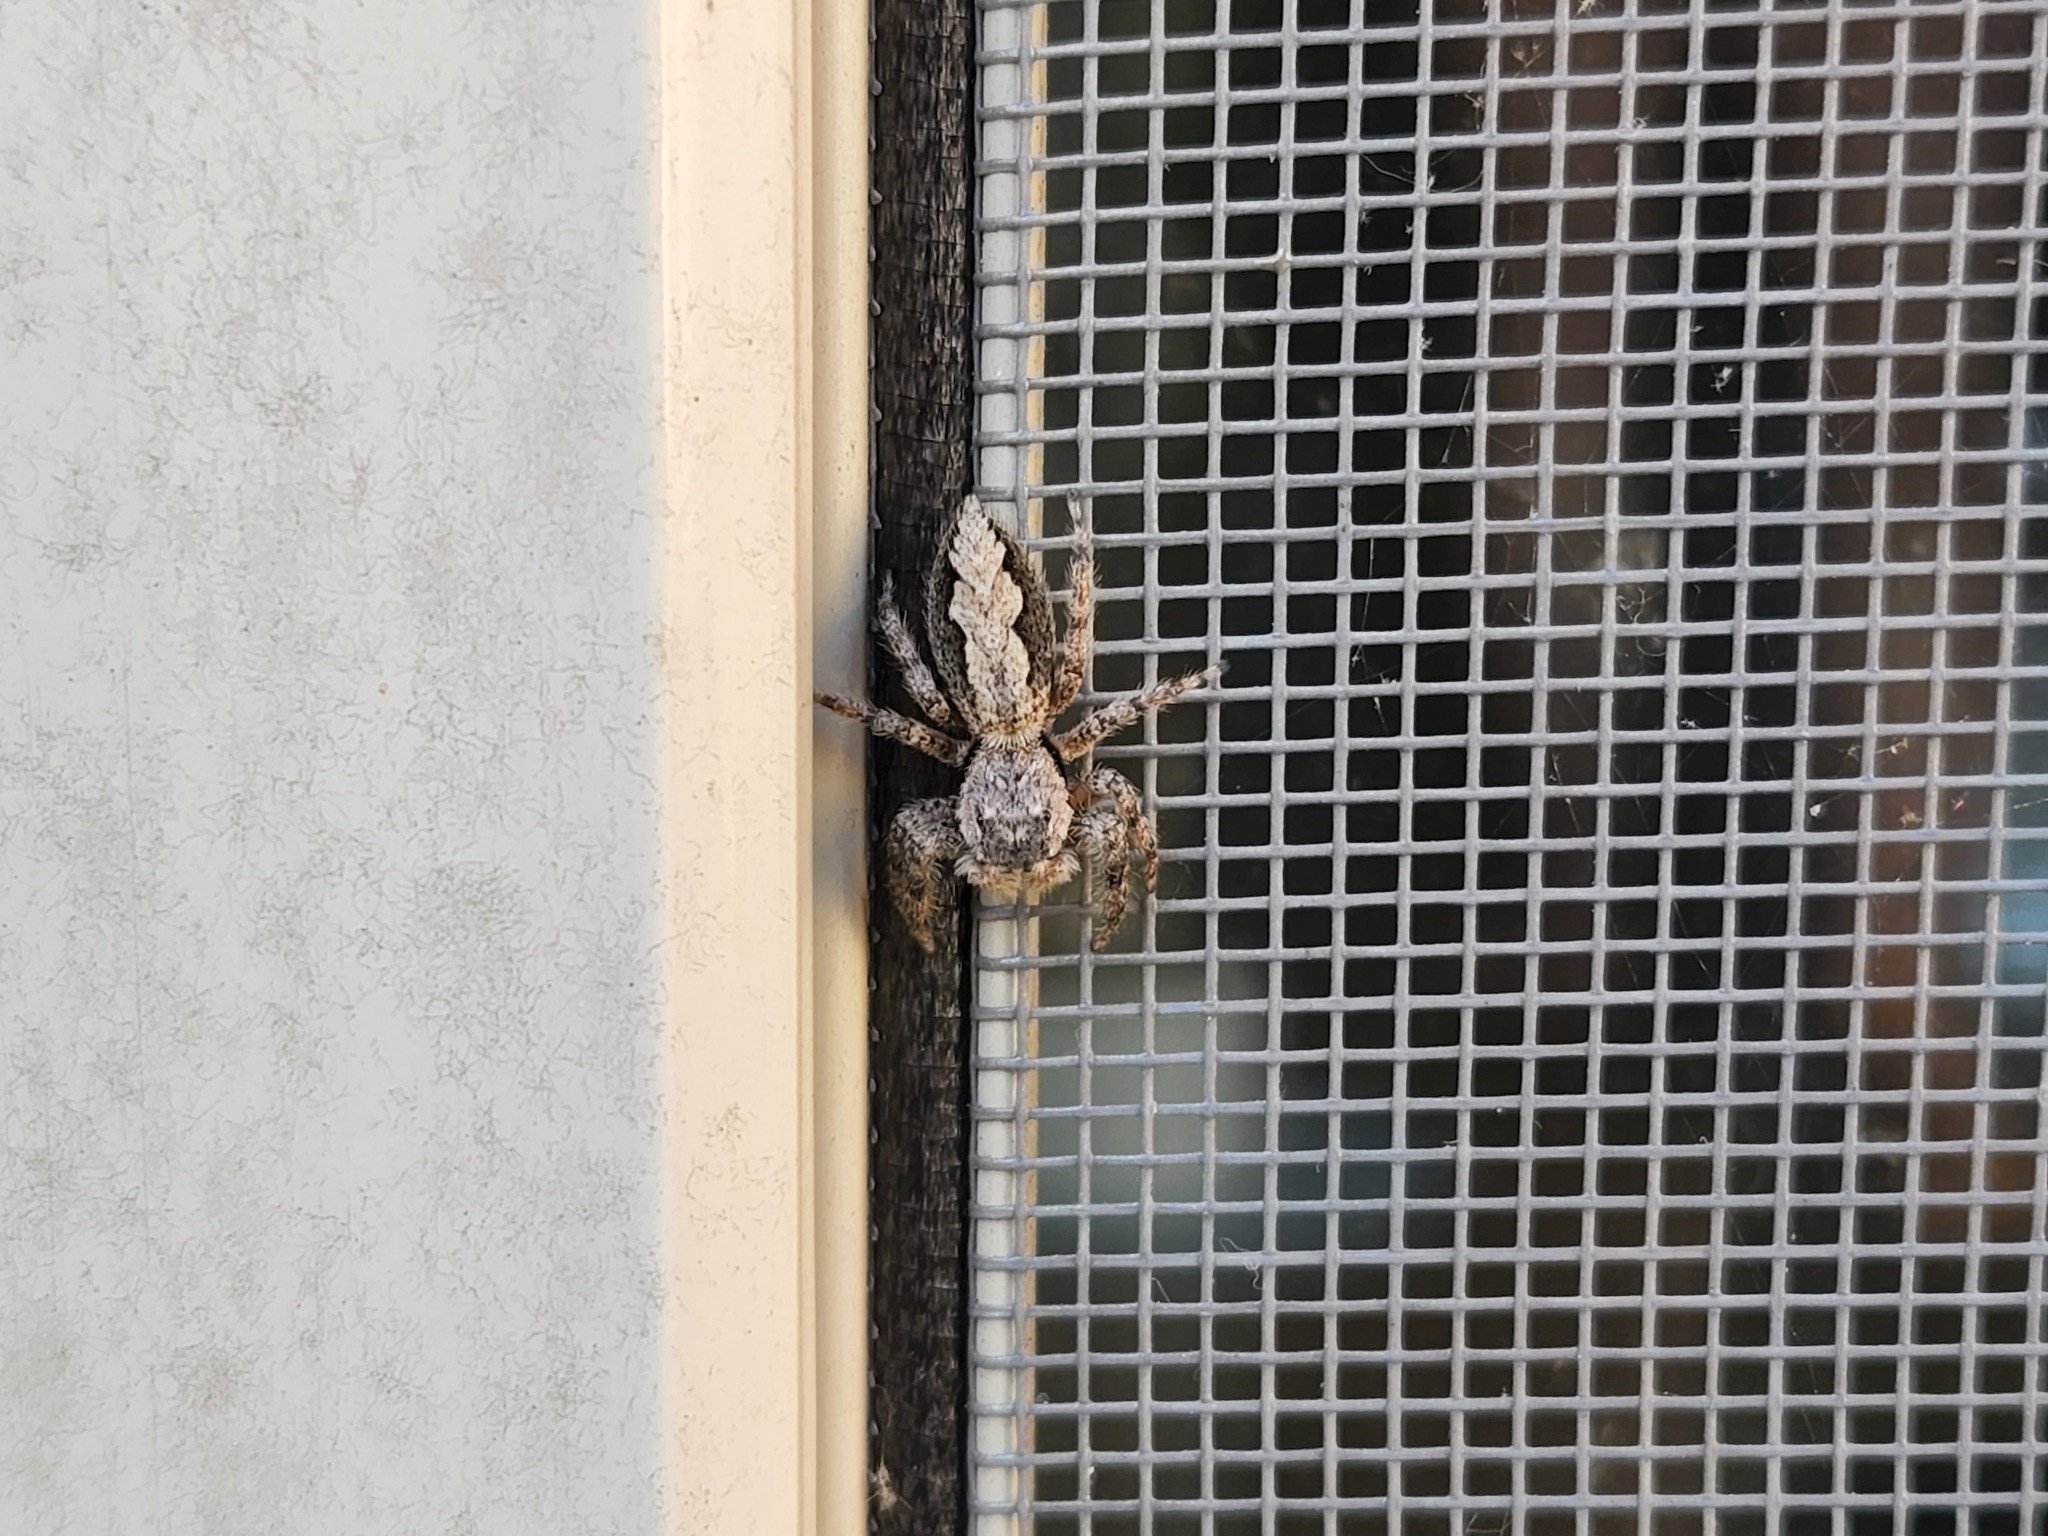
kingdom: Animalia
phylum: Arthropoda
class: Arachnida
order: Araneae
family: Salticidae
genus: Platycryptus
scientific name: Platycryptus undatus
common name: Tan jumping spider
